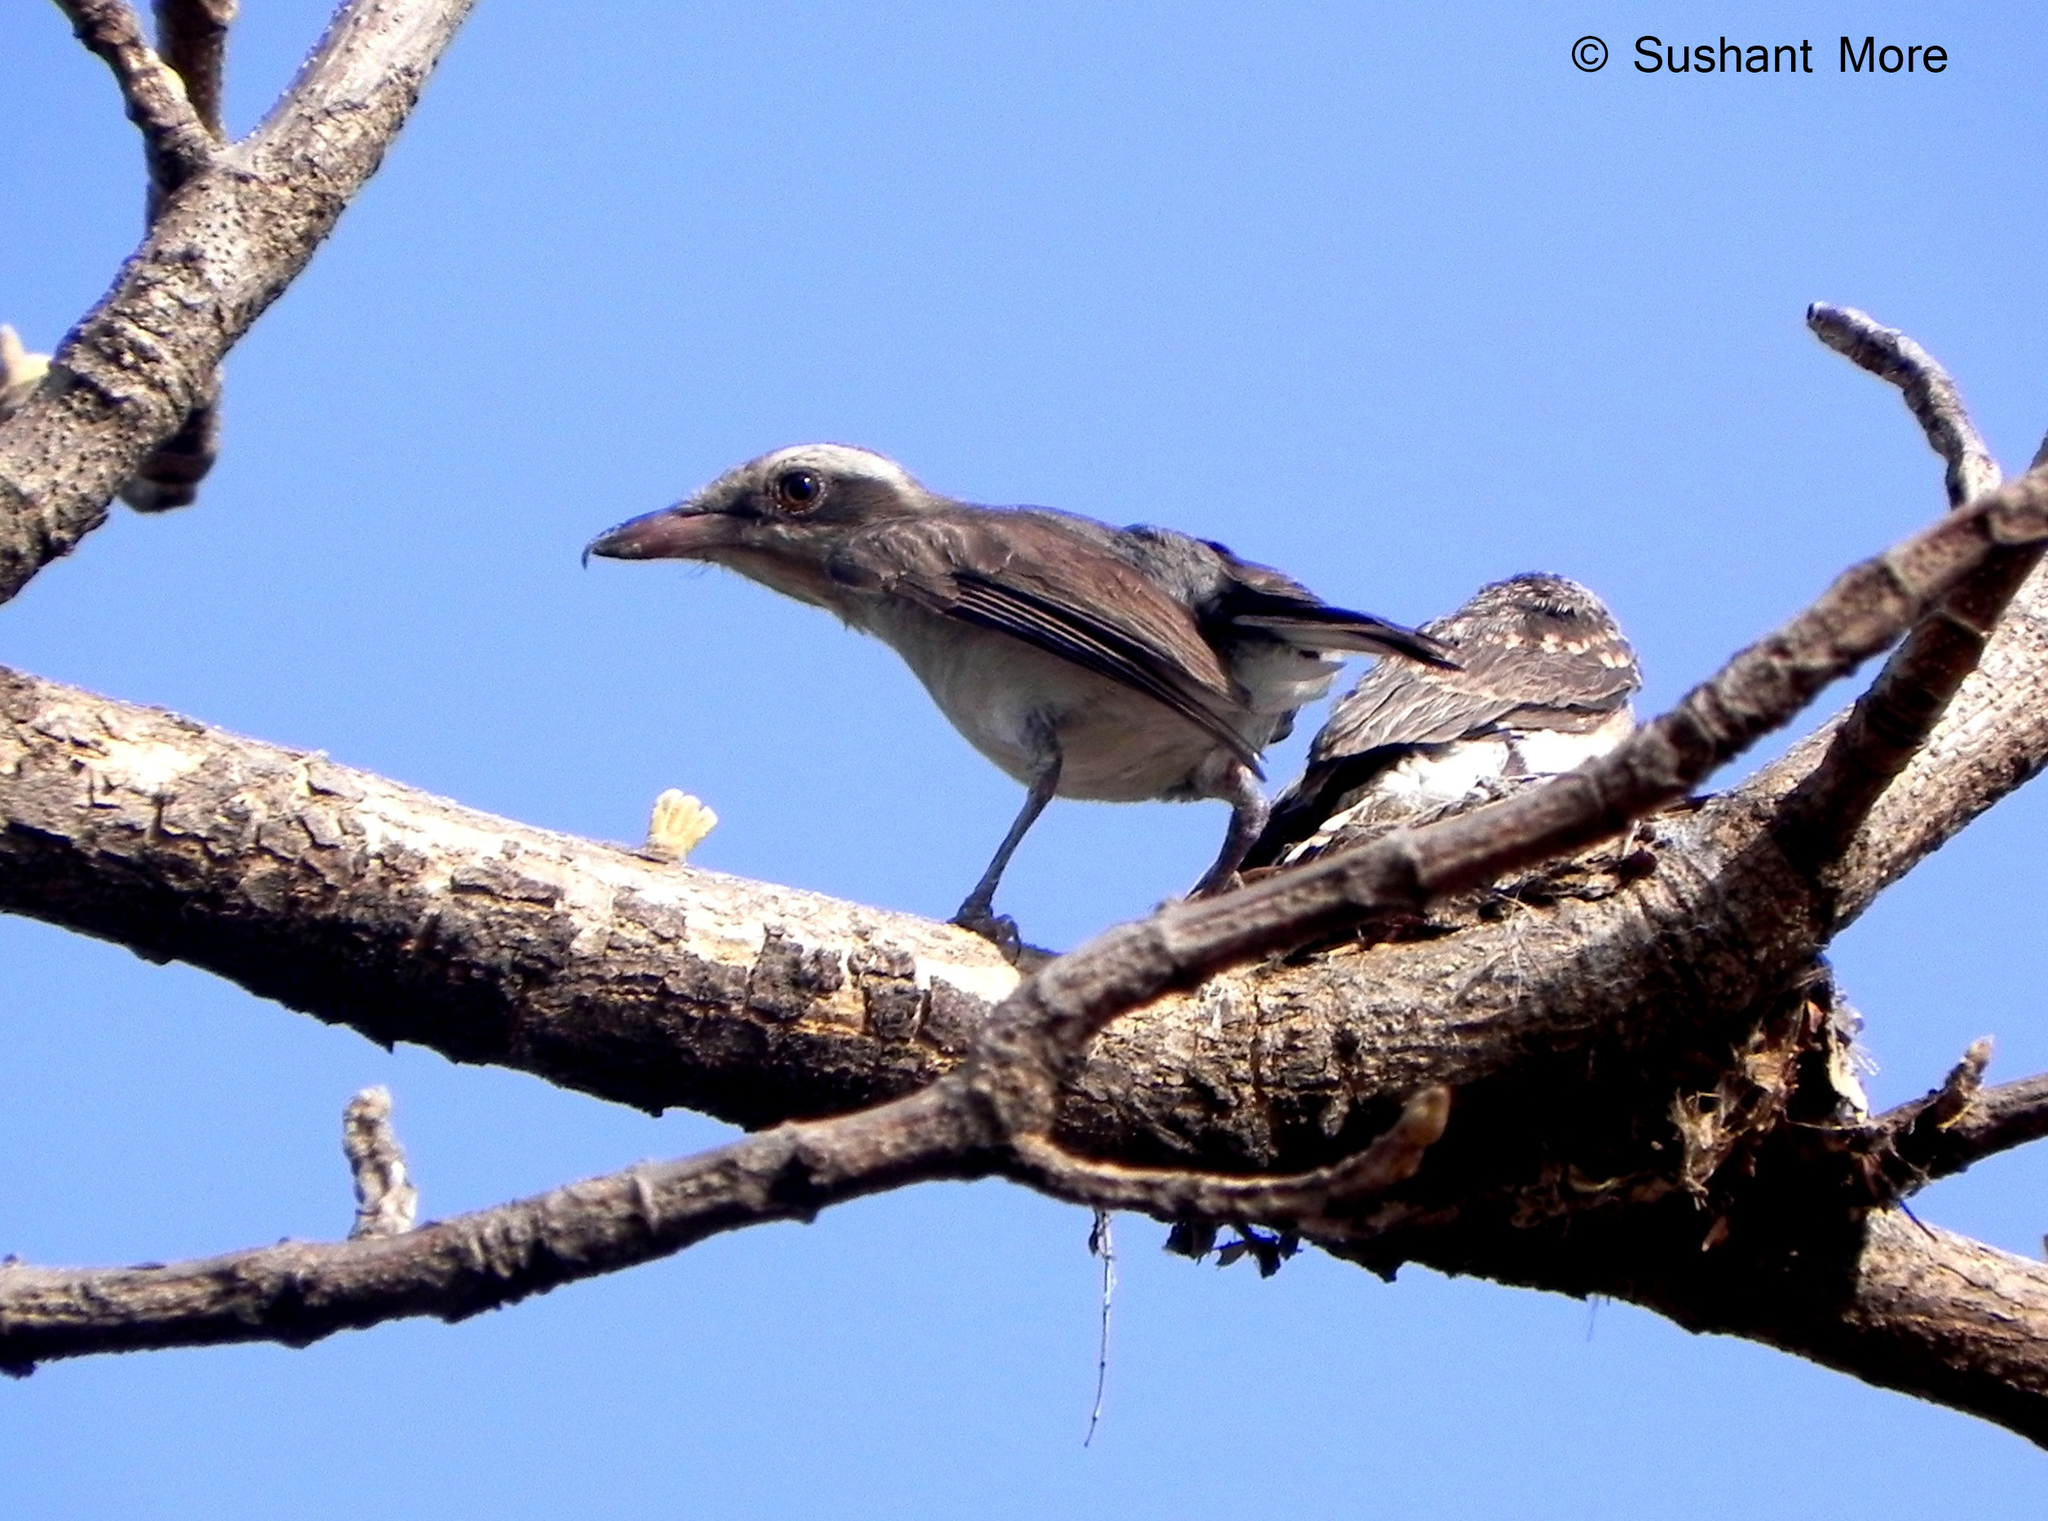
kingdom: Animalia
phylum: Chordata
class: Aves
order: Passeriformes
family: Tephrodornithidae
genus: Tephrodornis
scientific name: Tephrodornis pondicerianus
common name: Common woodshrike
